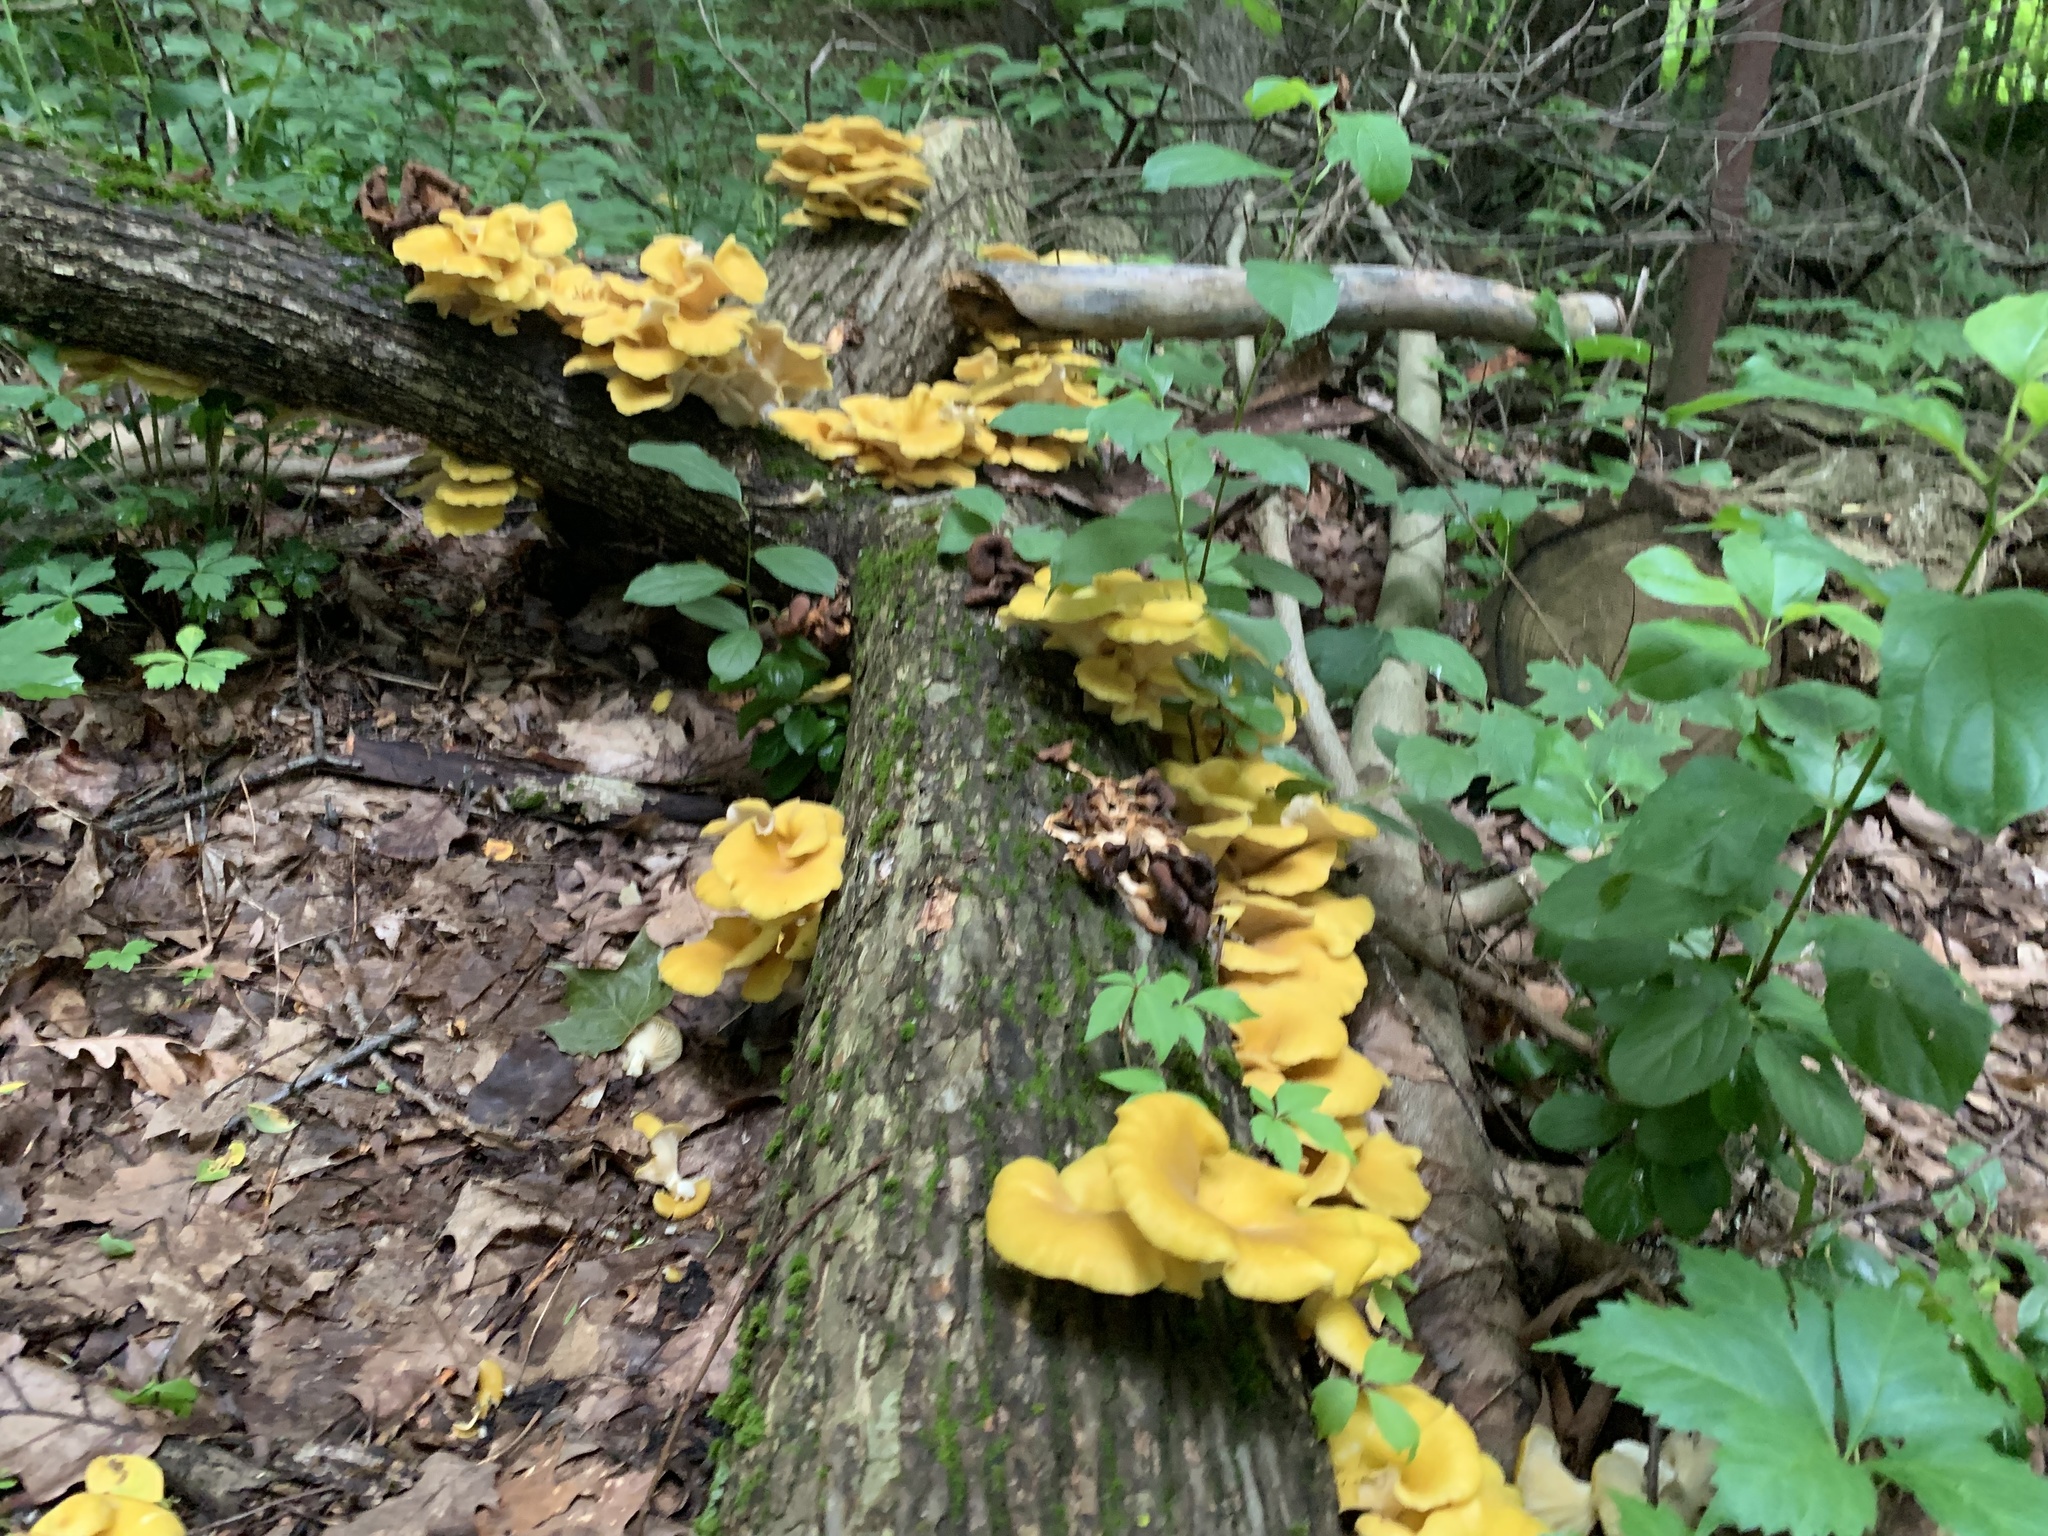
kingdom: Fungi
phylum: Basidiomycota
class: Agaricomycetes
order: Agaricales
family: Pleurotaceae
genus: Pleurotus
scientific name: Pleurotus citrinopileatus
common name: Golden oyster mushroom
